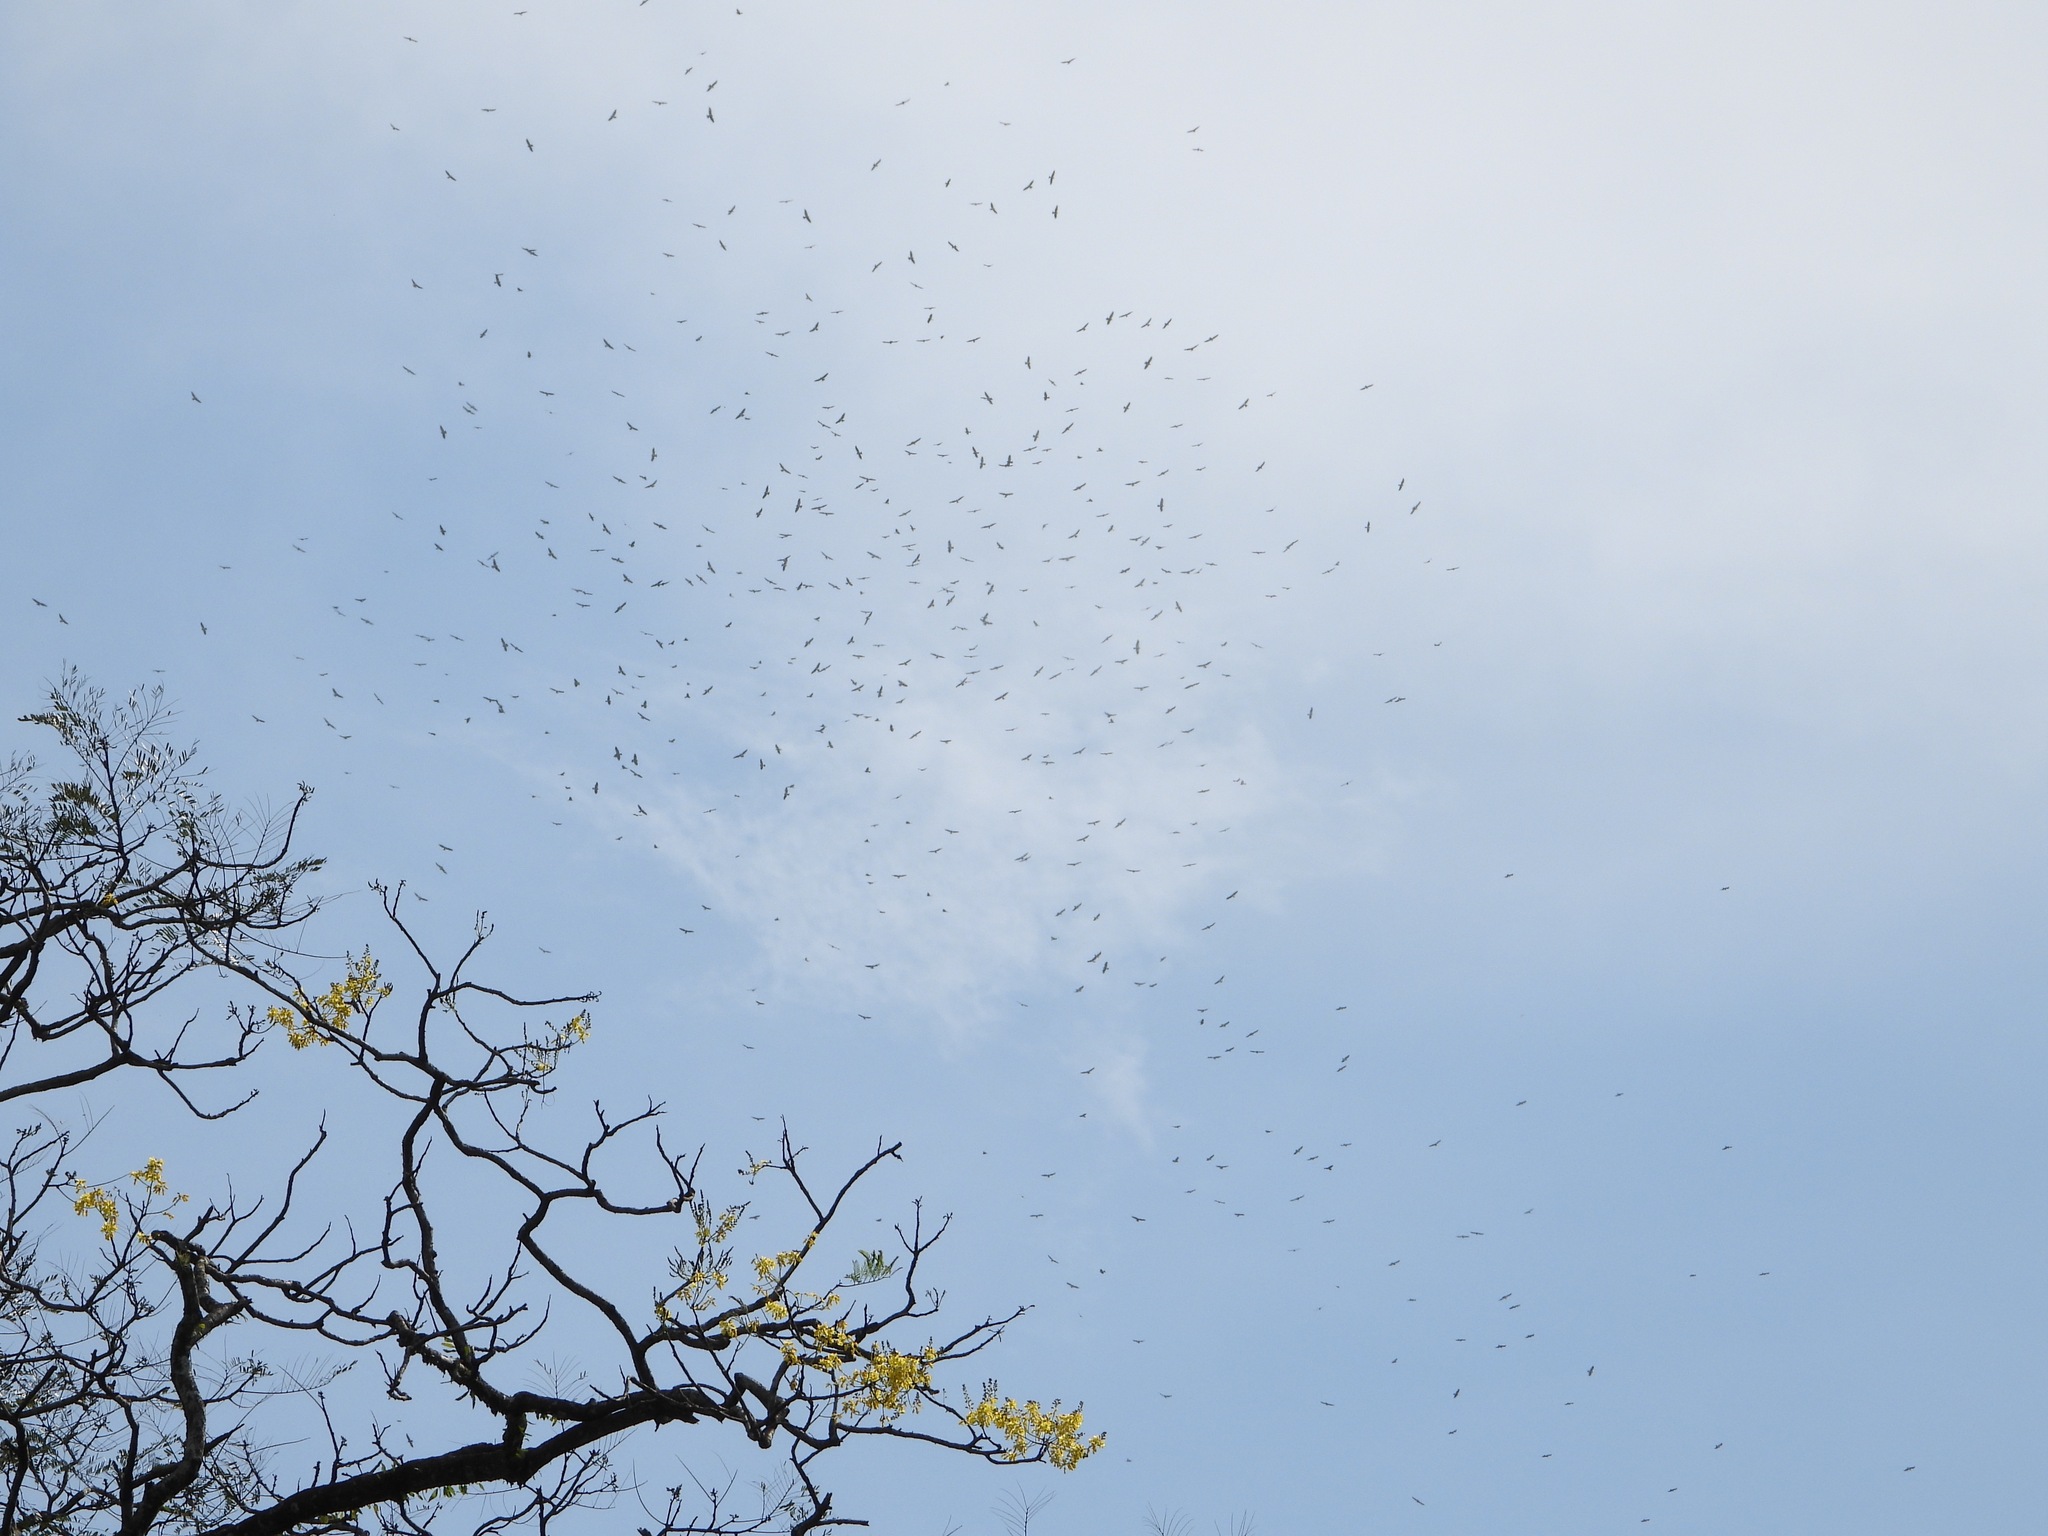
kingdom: Animalia
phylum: Chordata
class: Aves
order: Accipitriformes
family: Accipitridae
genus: Buteo
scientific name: Buteo swainsoni
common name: Swainson's hawk
